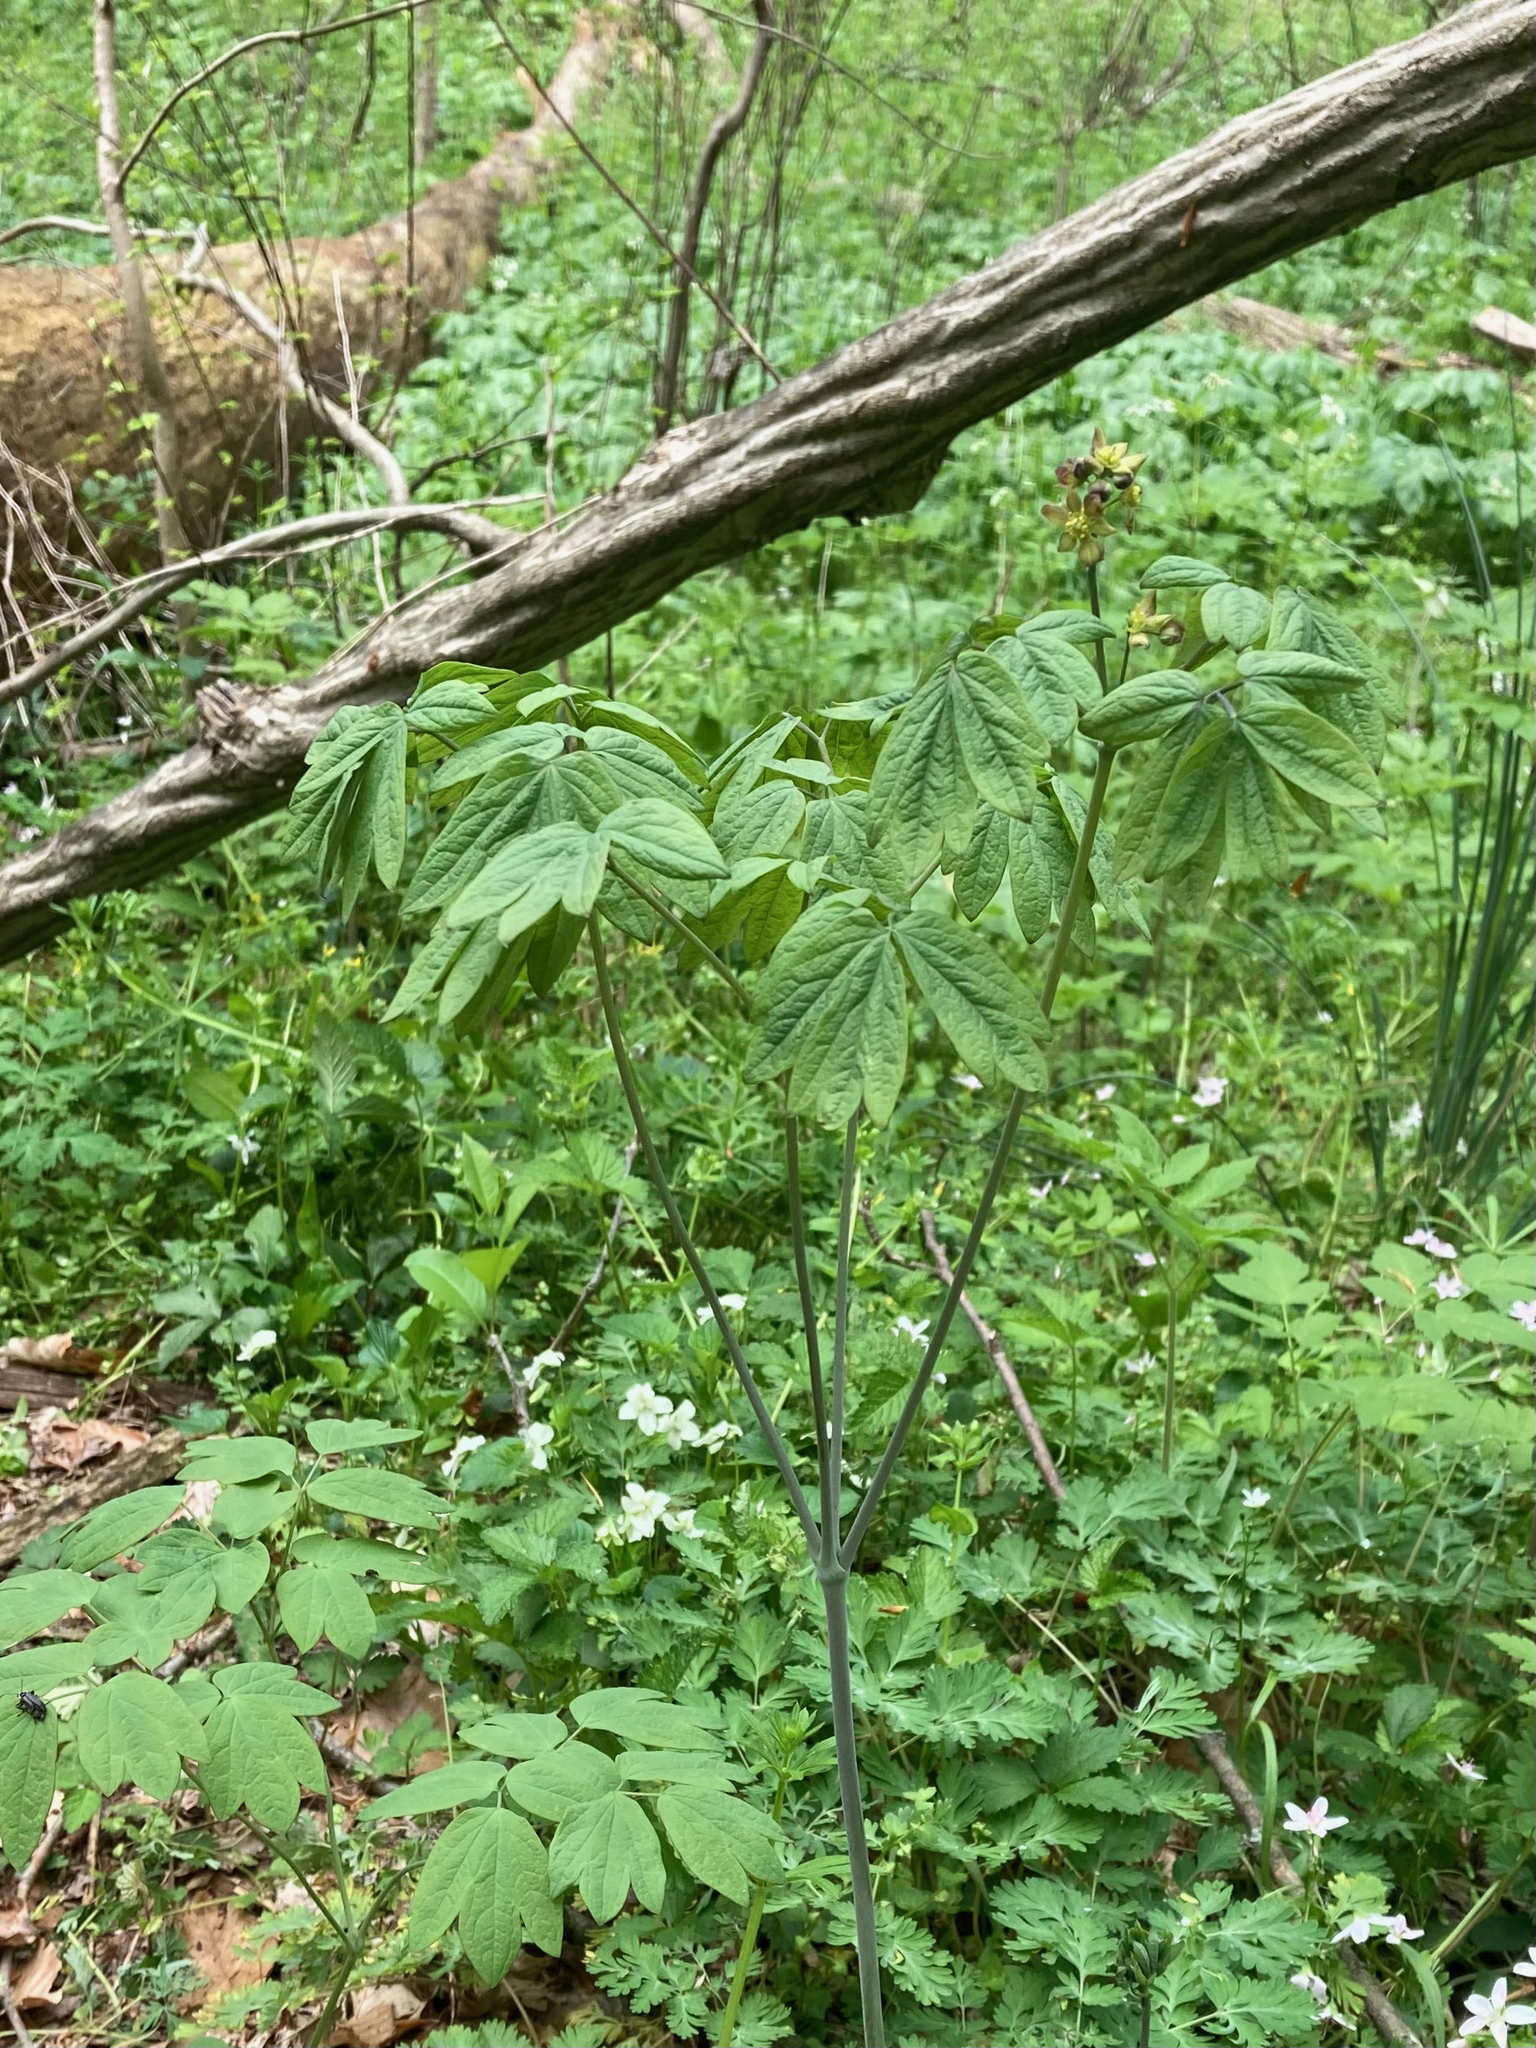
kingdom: Plantae
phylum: Tracheophyta
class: Magnoliopsida
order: Ranunculales
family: Berberidaceae
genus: Caulophyllum
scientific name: Caulophyllum thalictroides
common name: Blue cohosh
